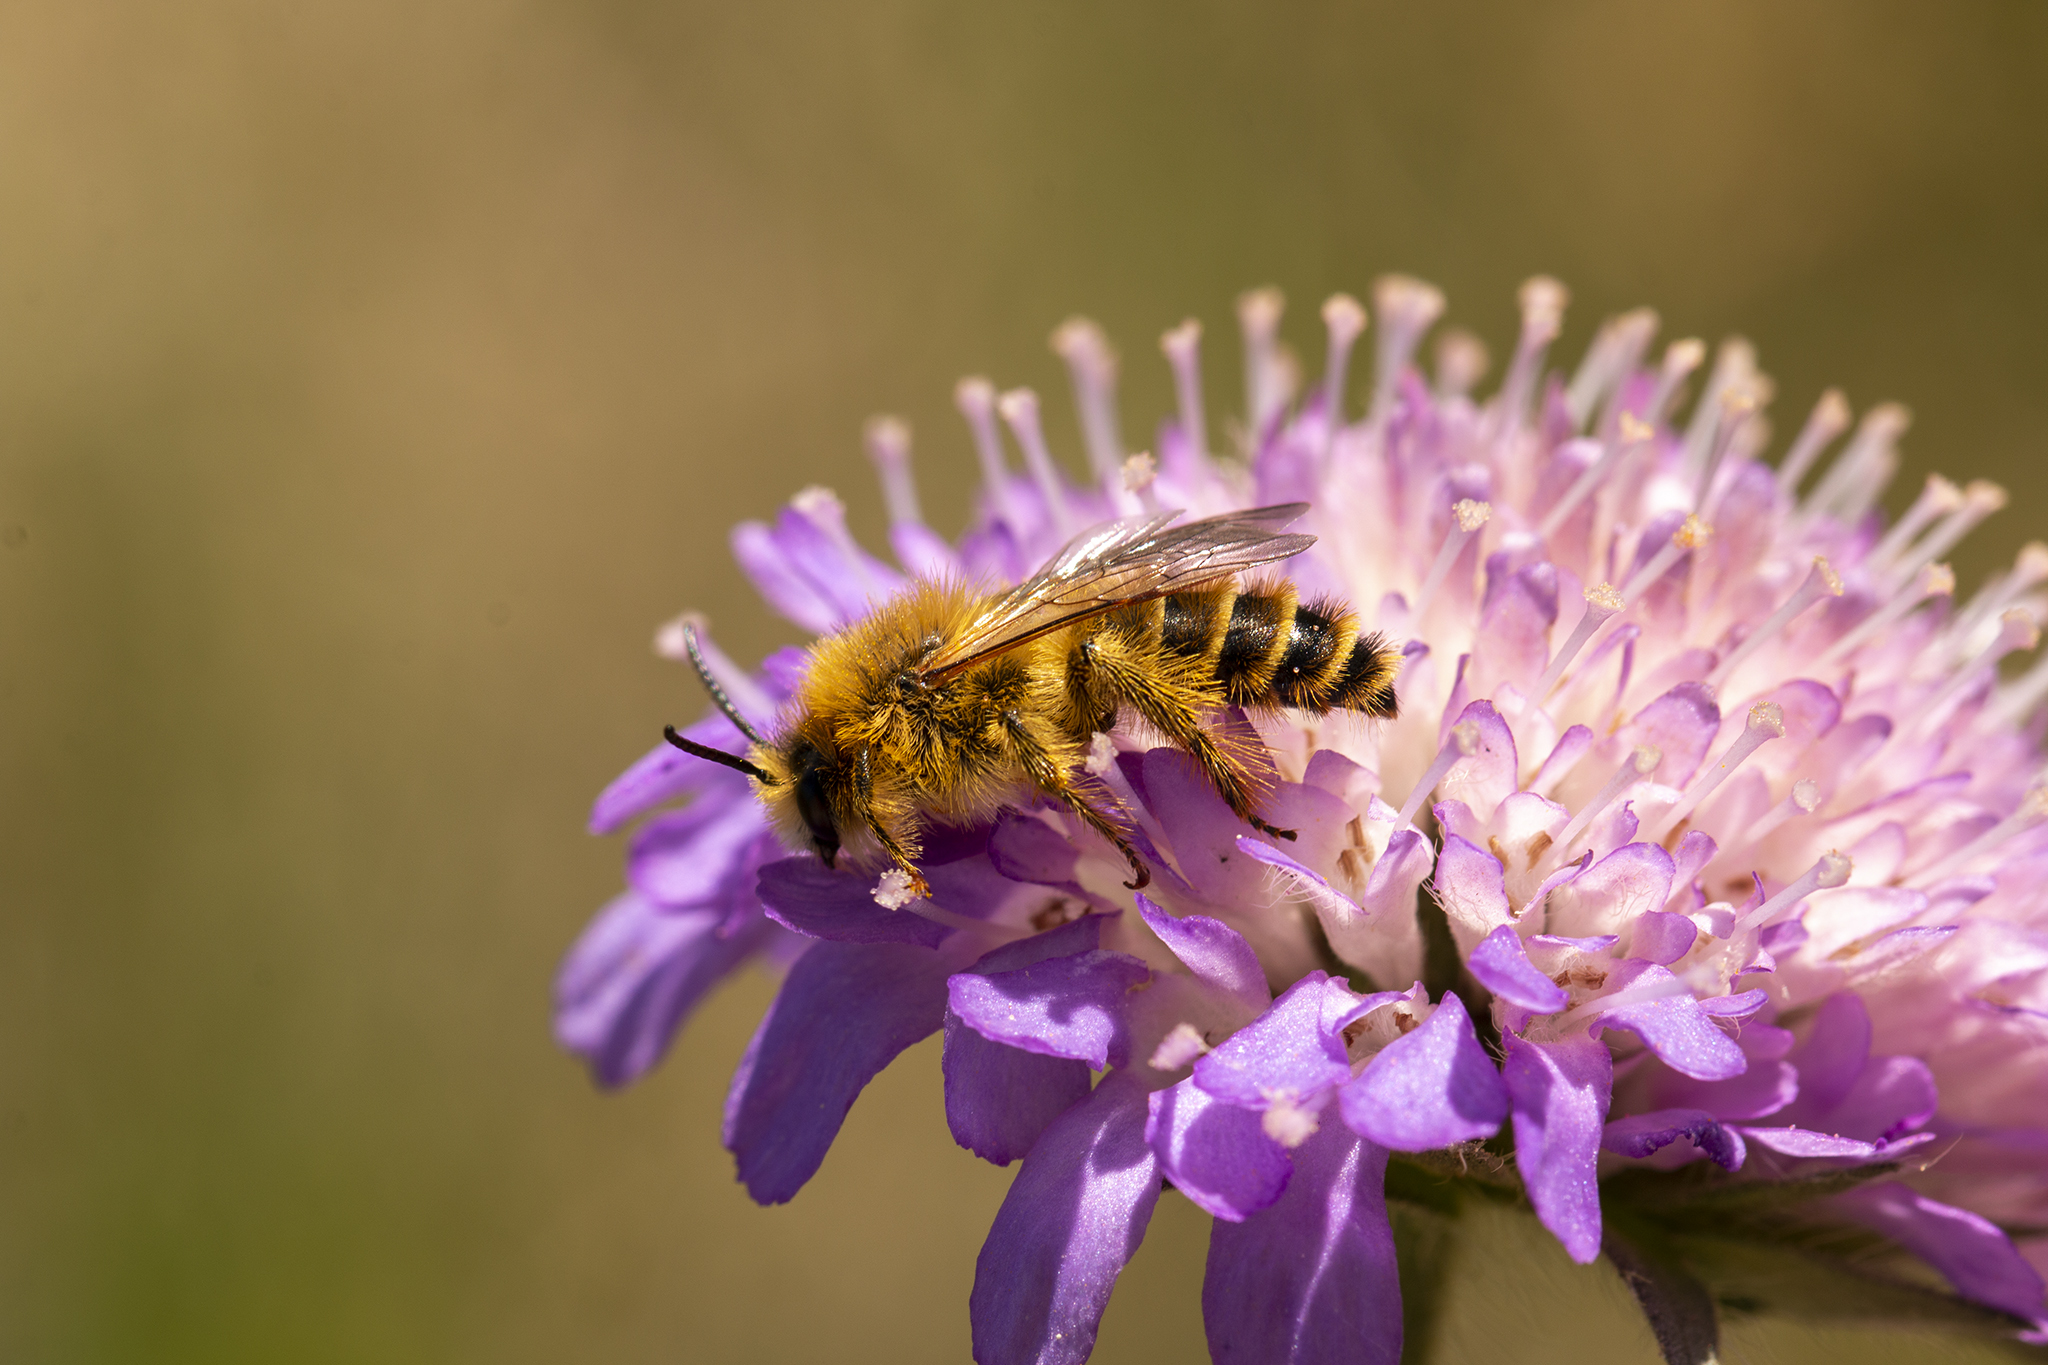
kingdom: Animalia
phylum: Arthropoda
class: Insecta
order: Hymenoptera
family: Melittidae
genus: Dasypoda
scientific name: Dasypoda hirtipes
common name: Pantaloon bee
